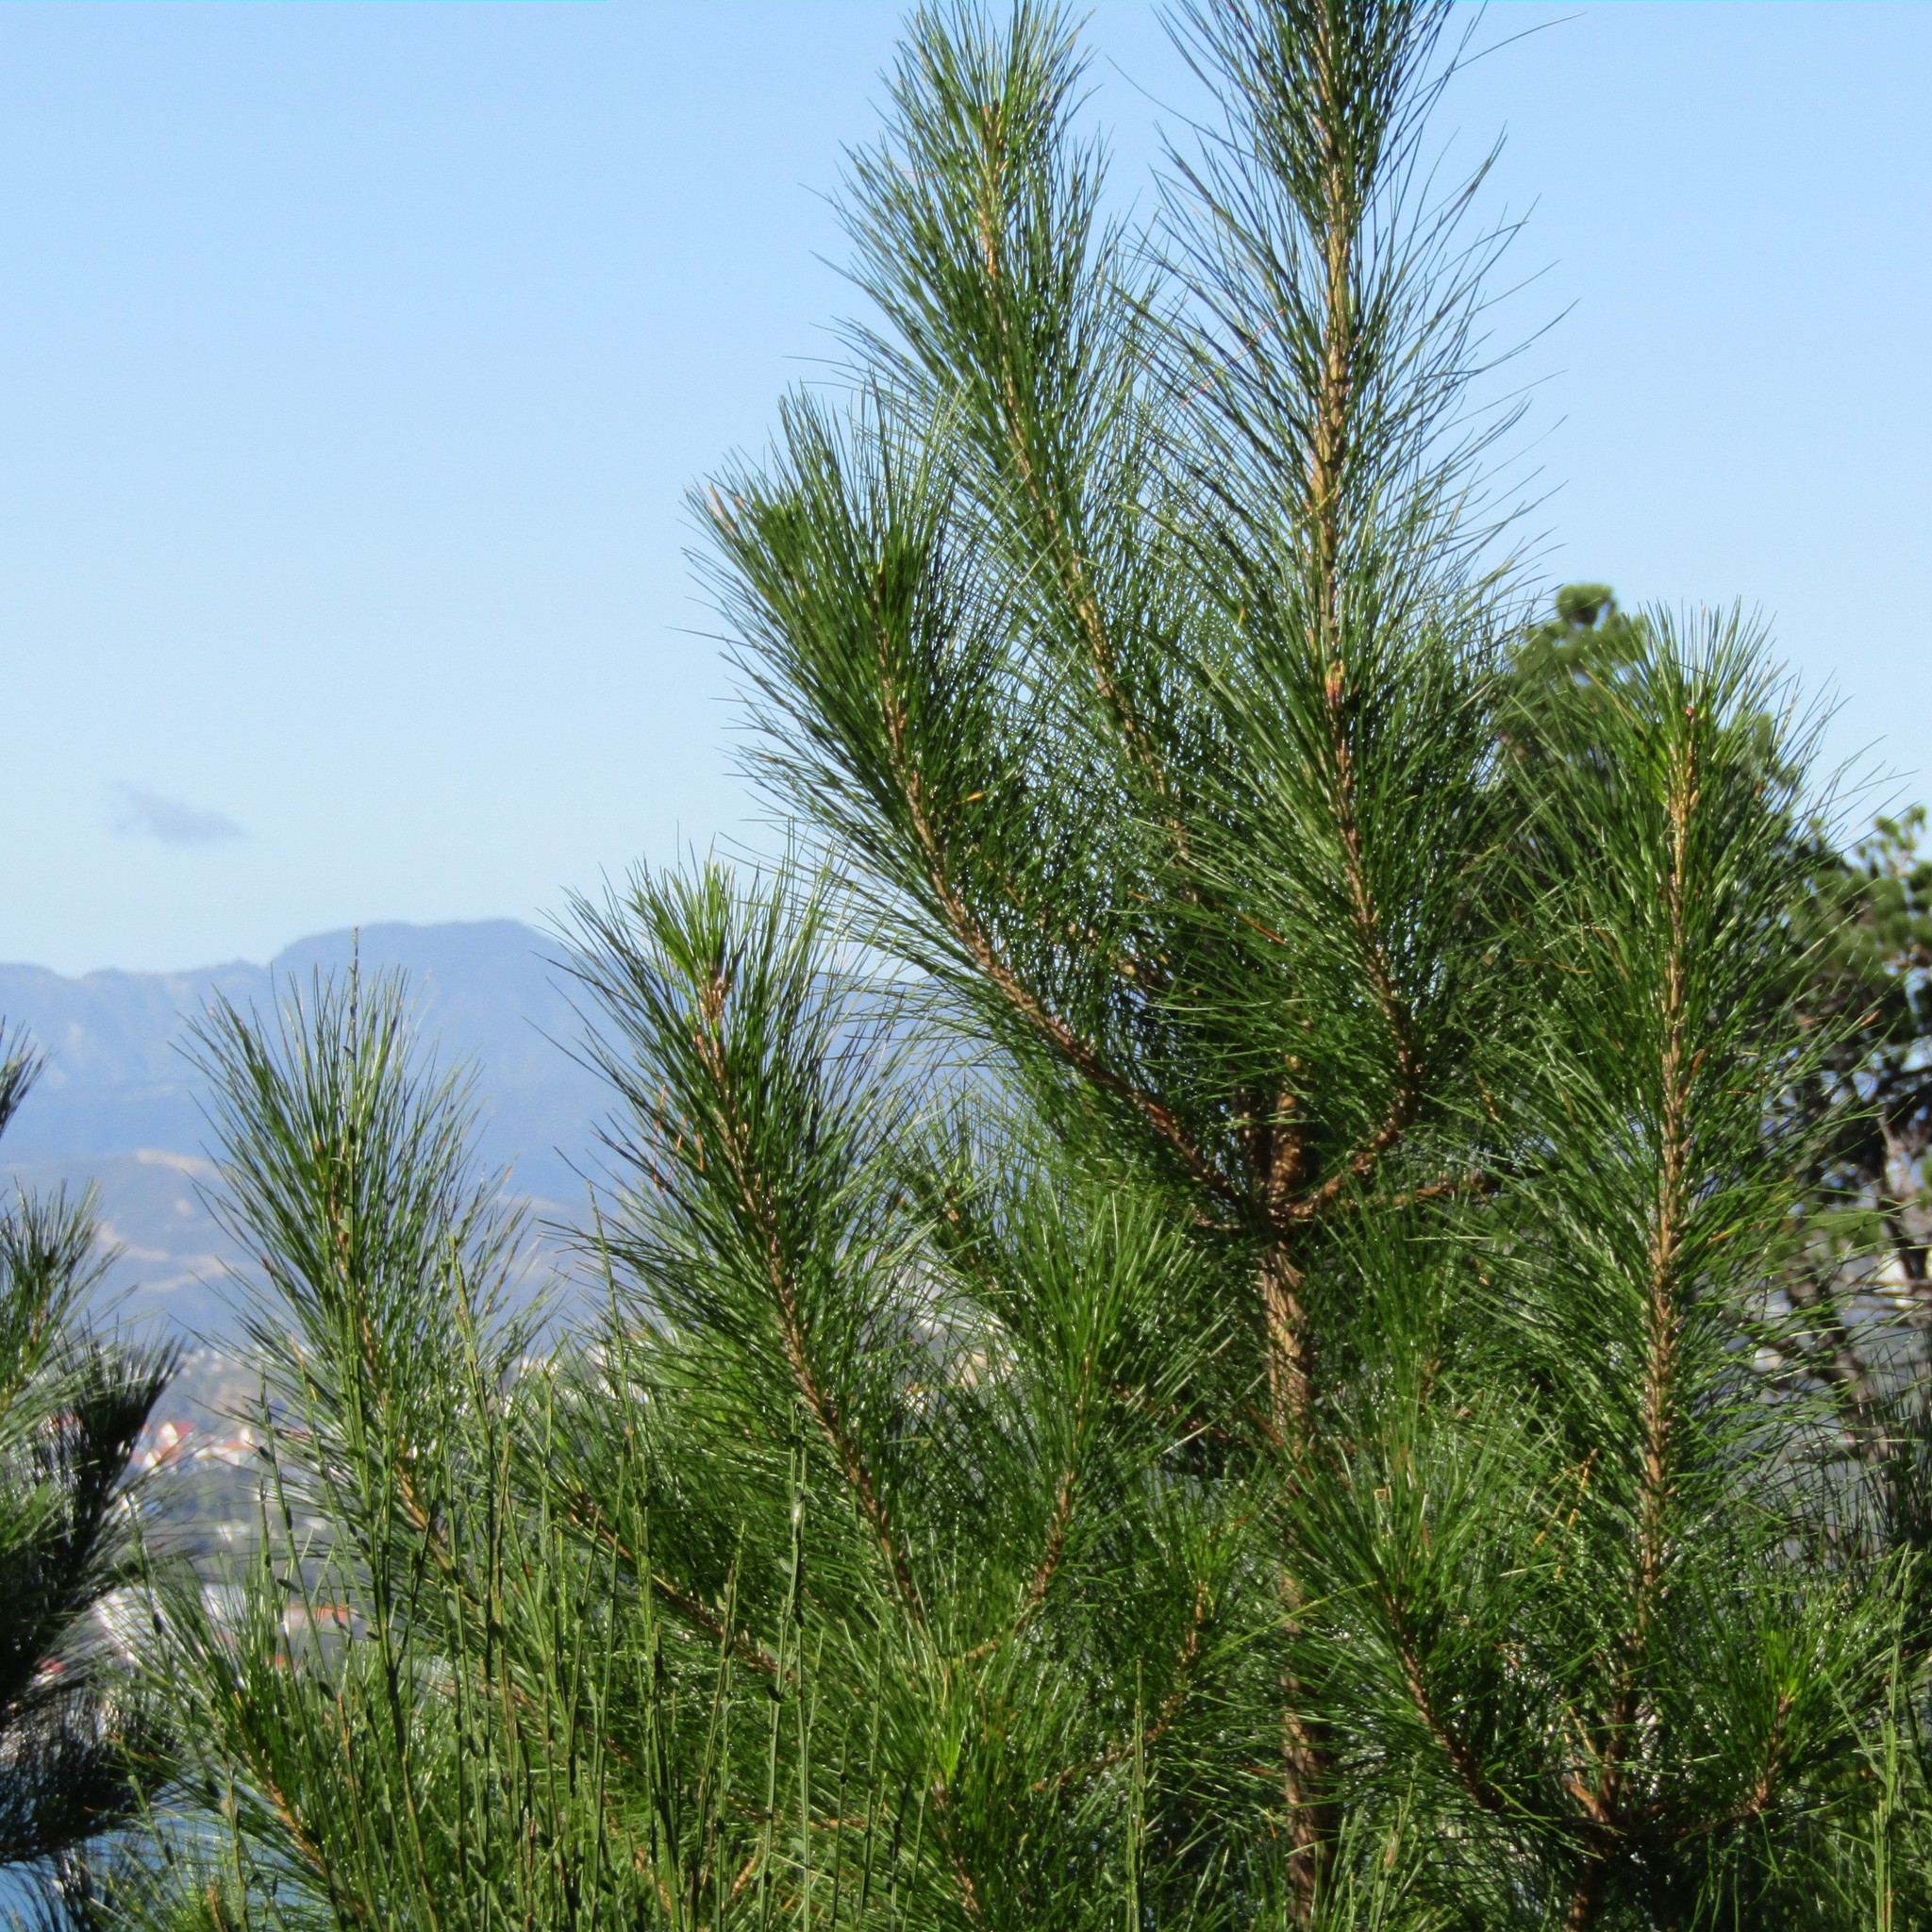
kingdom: Plantae
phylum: Tracheophyta
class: Pinopsida
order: Pinales
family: Pinaceae
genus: Pinus
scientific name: Pinus radiata
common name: Monterey pine
